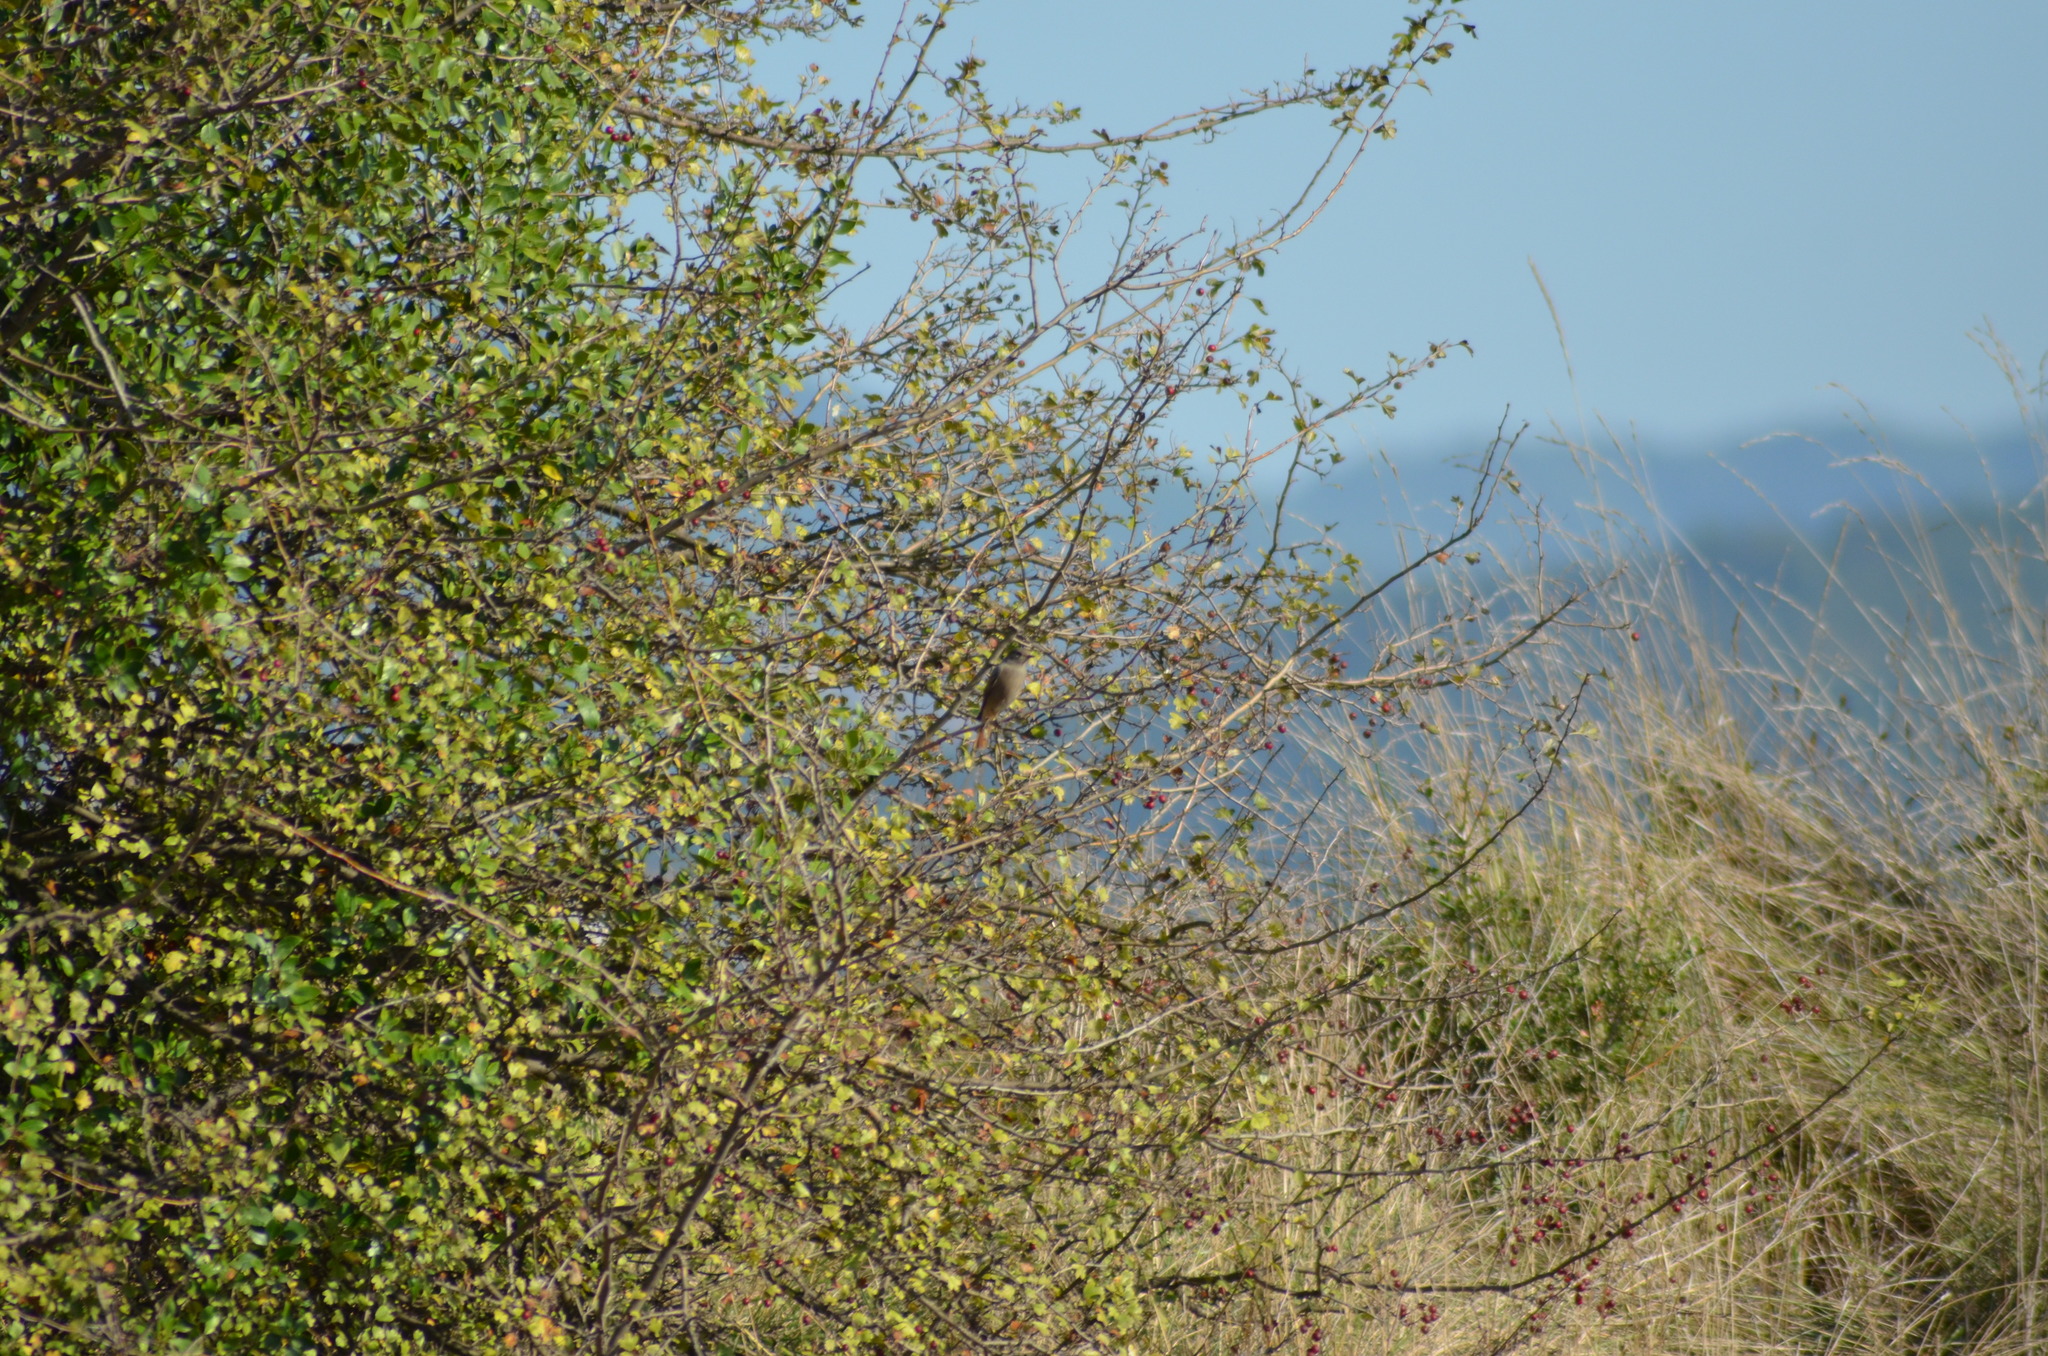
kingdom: Animalia
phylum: Chordata
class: Aves
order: Passeriformes
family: Muscicapidae
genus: Phoenicurus
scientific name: Phoenicurus ochruros
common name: Black redstart
